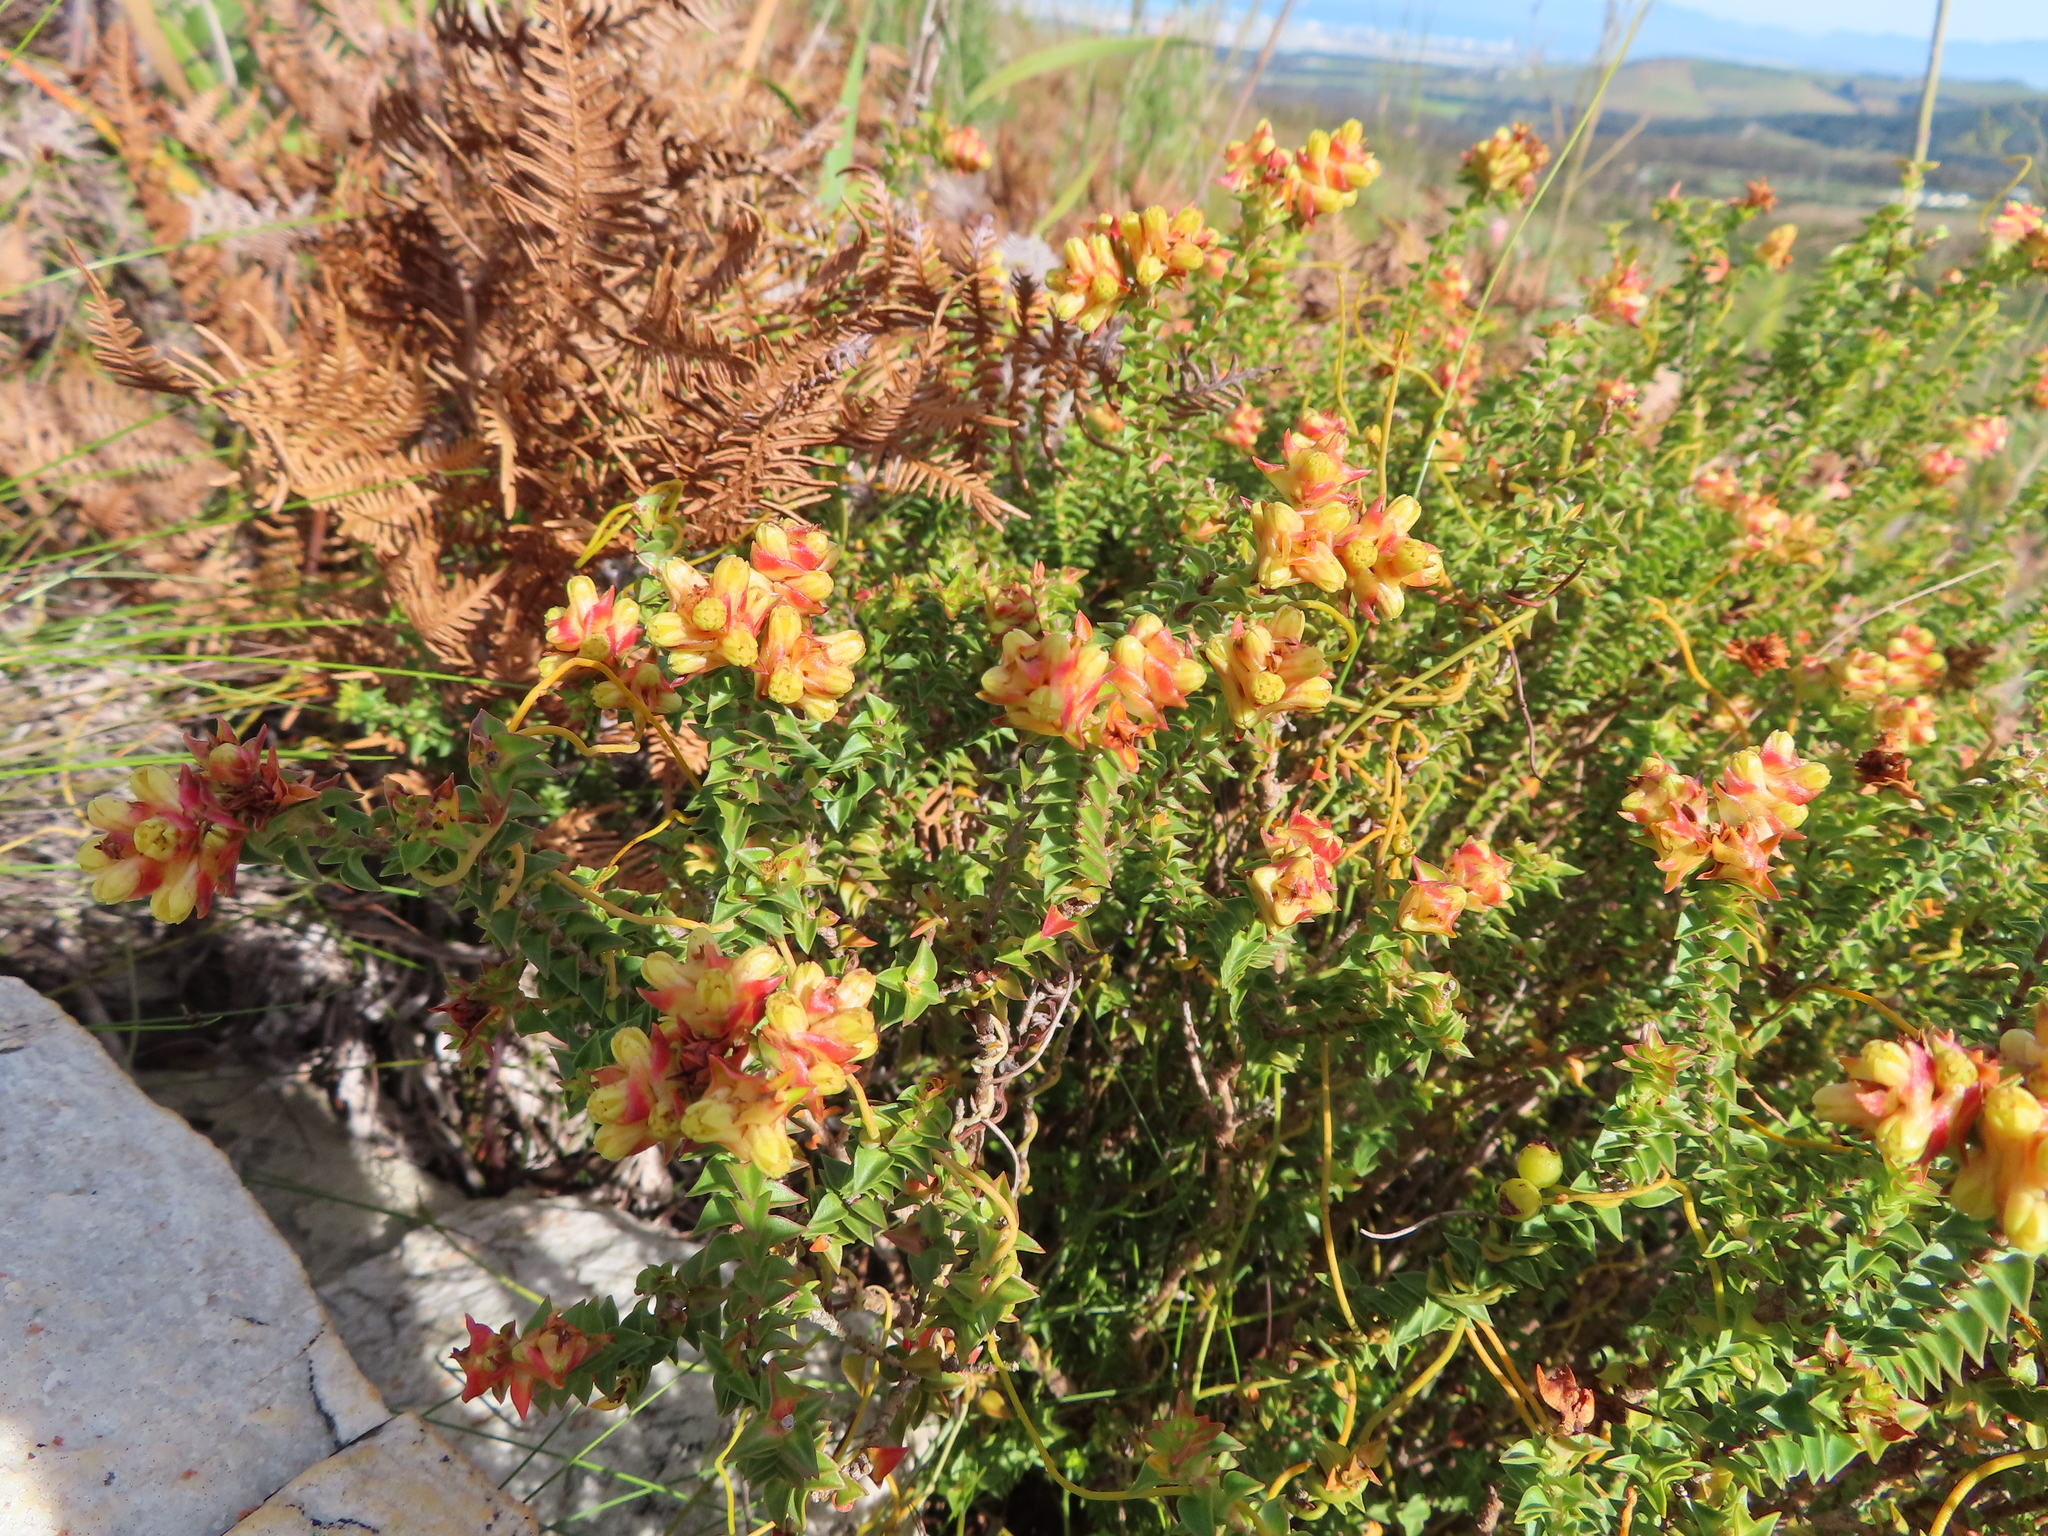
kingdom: Plantae
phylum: Tracheophyta
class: Magnoliopsida
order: Myrtales
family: Penaeaceae
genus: Penaea
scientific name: Penaea mucronata
